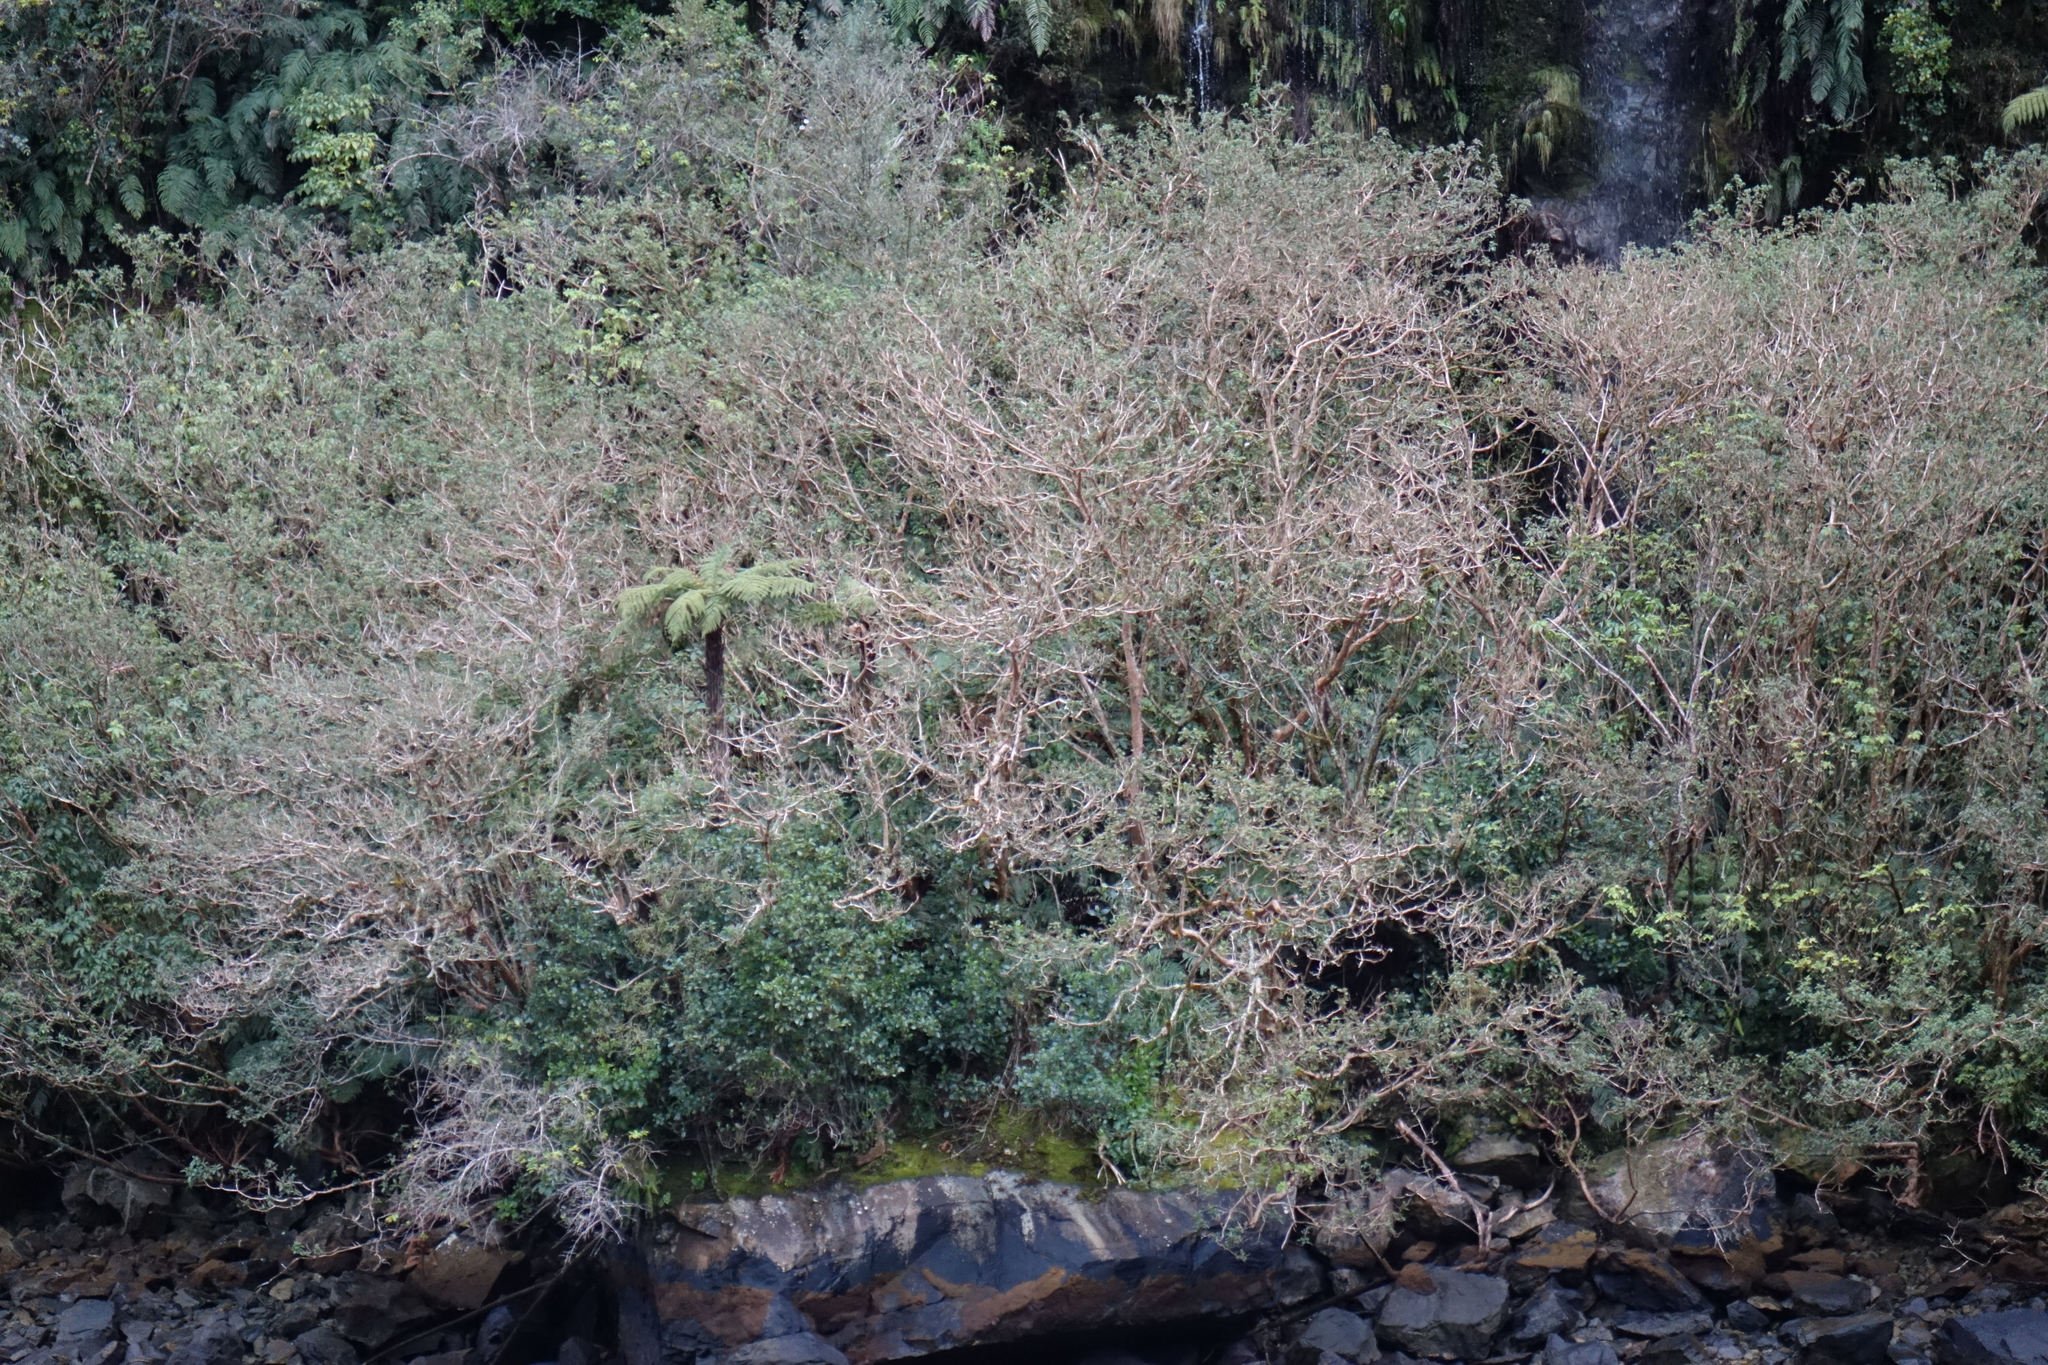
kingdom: Plantae
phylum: Tracheophyta
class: Magnoliopsida
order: Myrtales
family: Onagraceae
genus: Fuchsia
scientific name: Fuchsia excorticata
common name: Tree fuchsia
